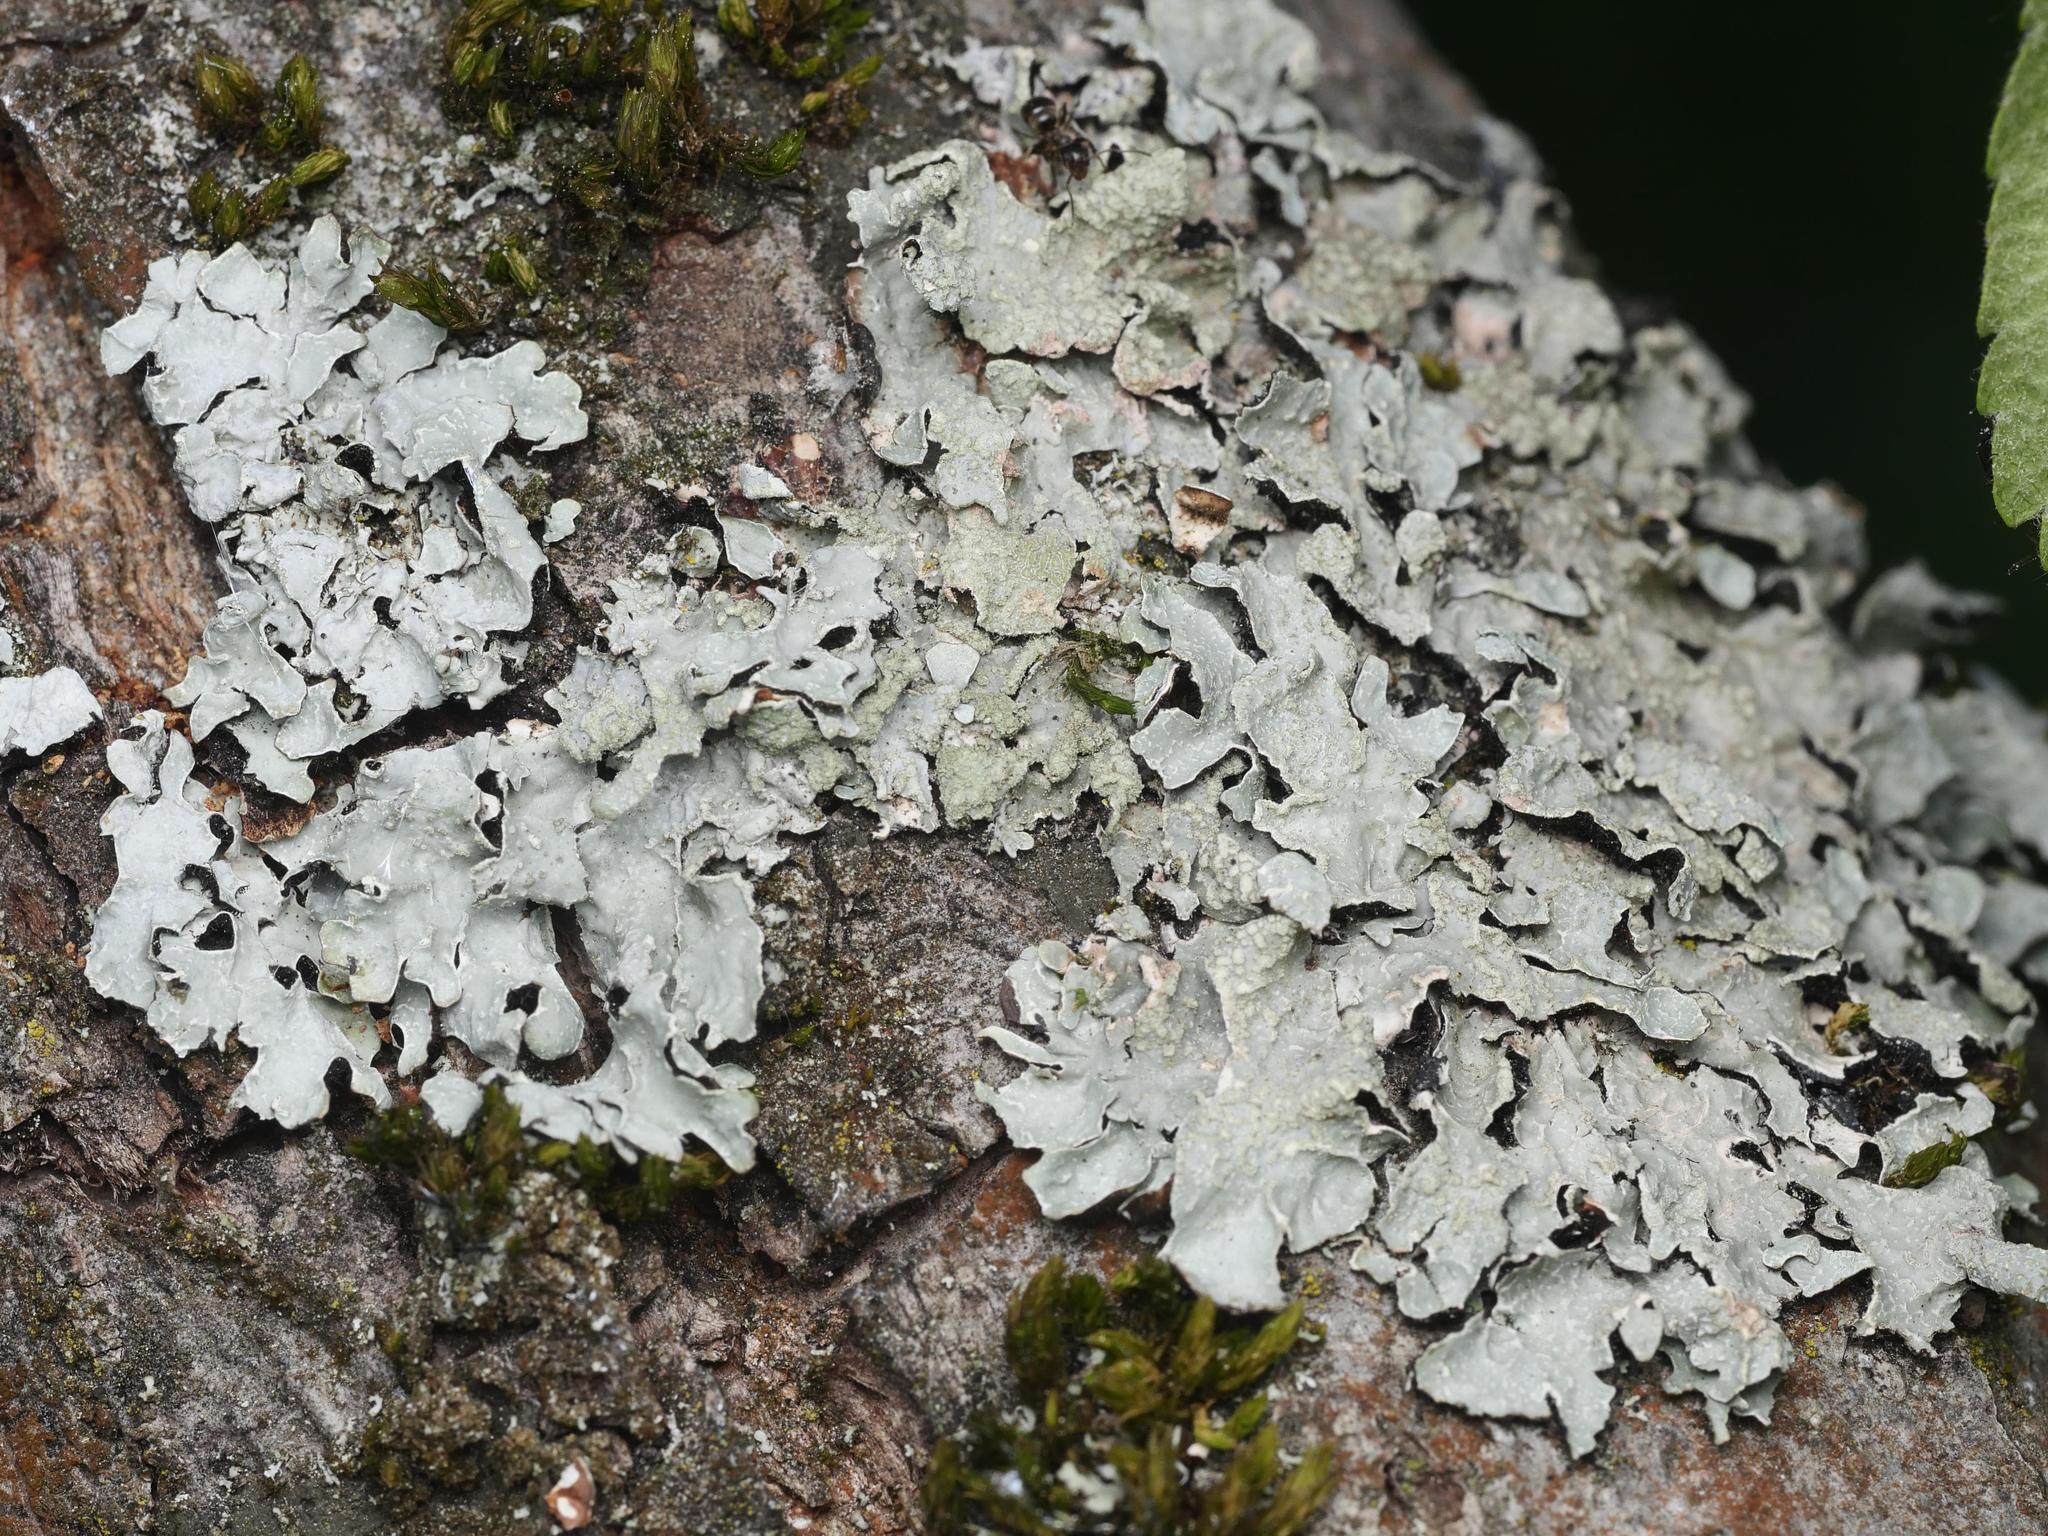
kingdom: Fungi
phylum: Ascomycota
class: Lecanoromycetes
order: Lecanorales
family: Parmeliaceae
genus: Parmelia
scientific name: Parmelia sulcata
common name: Netted shield lichen
